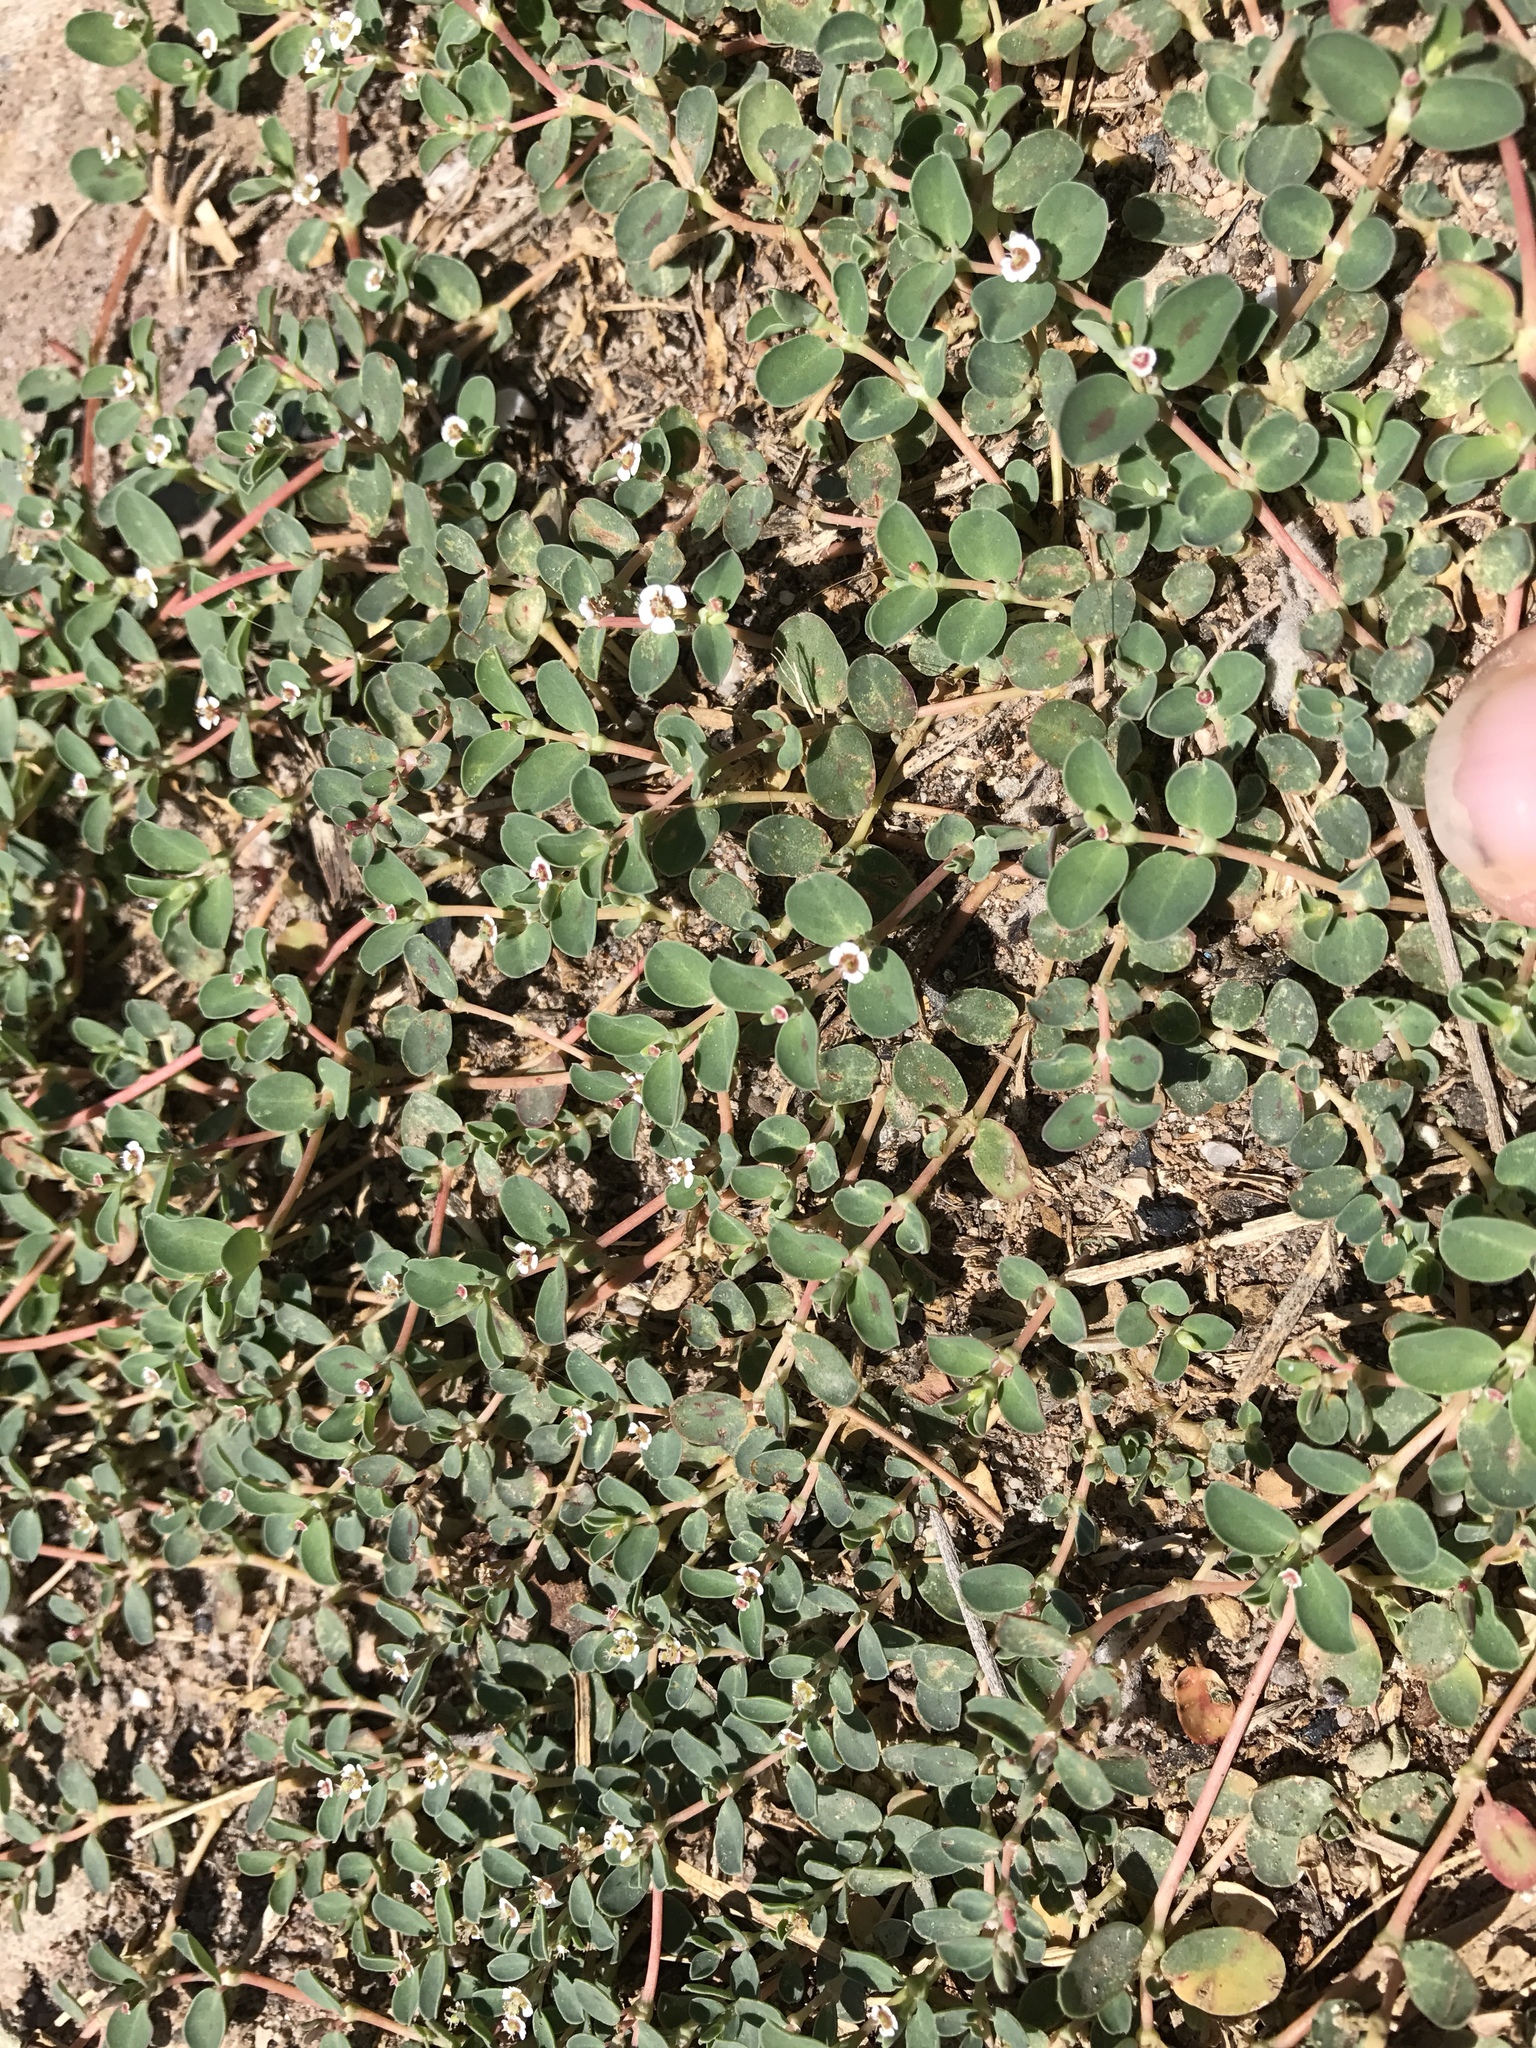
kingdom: Plantae
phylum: Tracheophyta
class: Magnoliopsida
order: Malpighiales
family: Euphorbiaceae
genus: Euphorbia
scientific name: Euphorbia albomarginata
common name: Whitemargin sandmat
